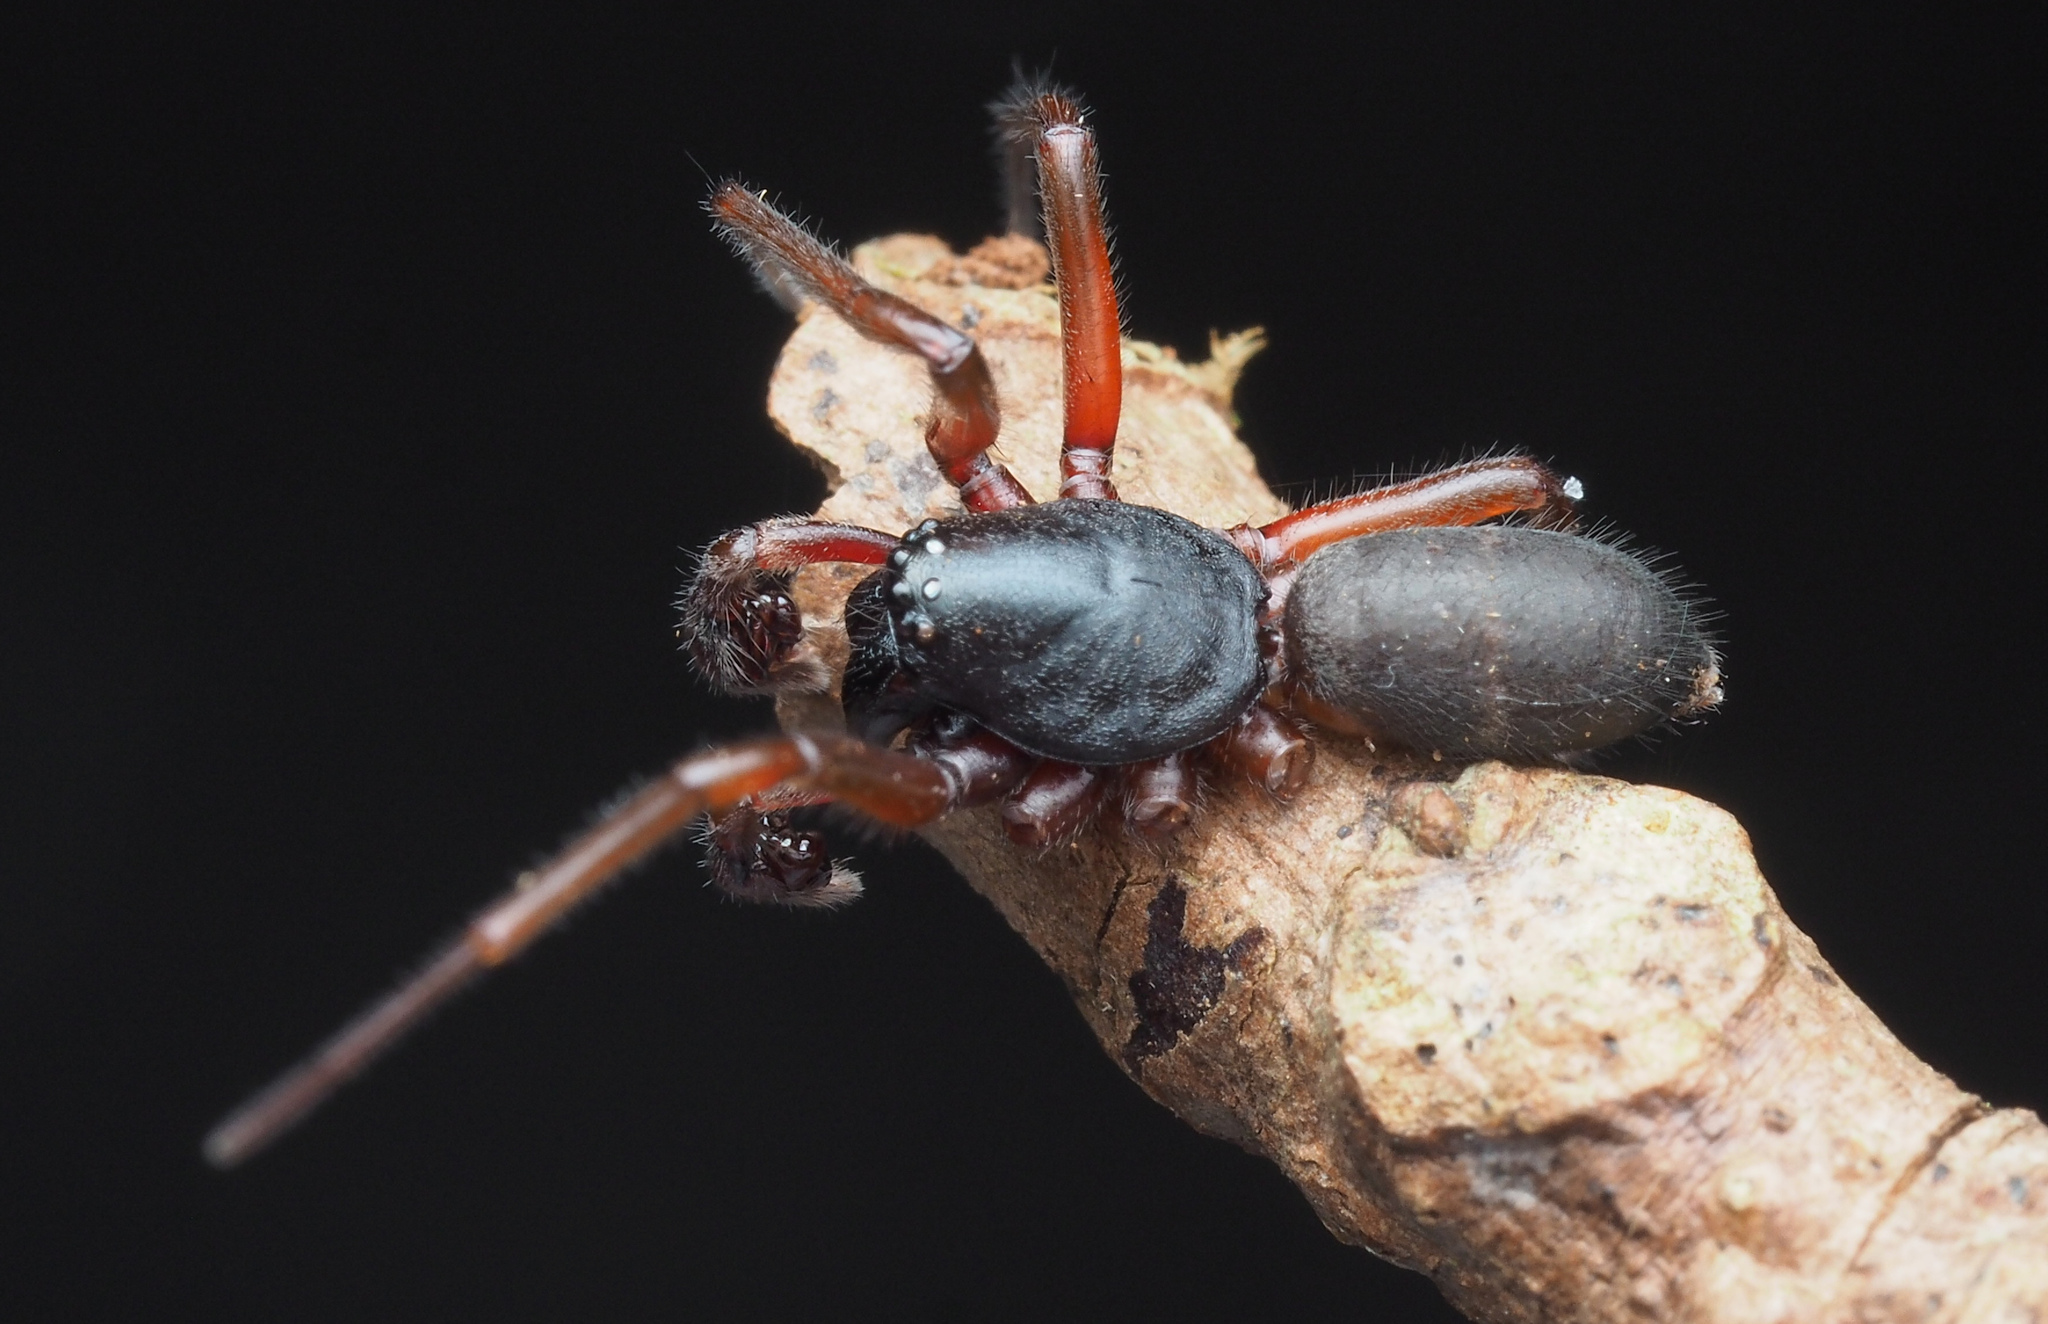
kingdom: Animalia
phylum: Arthropoda
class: Arachnida
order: Araneae
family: Lamponidae
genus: Centrothele
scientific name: Centrothele mutica
